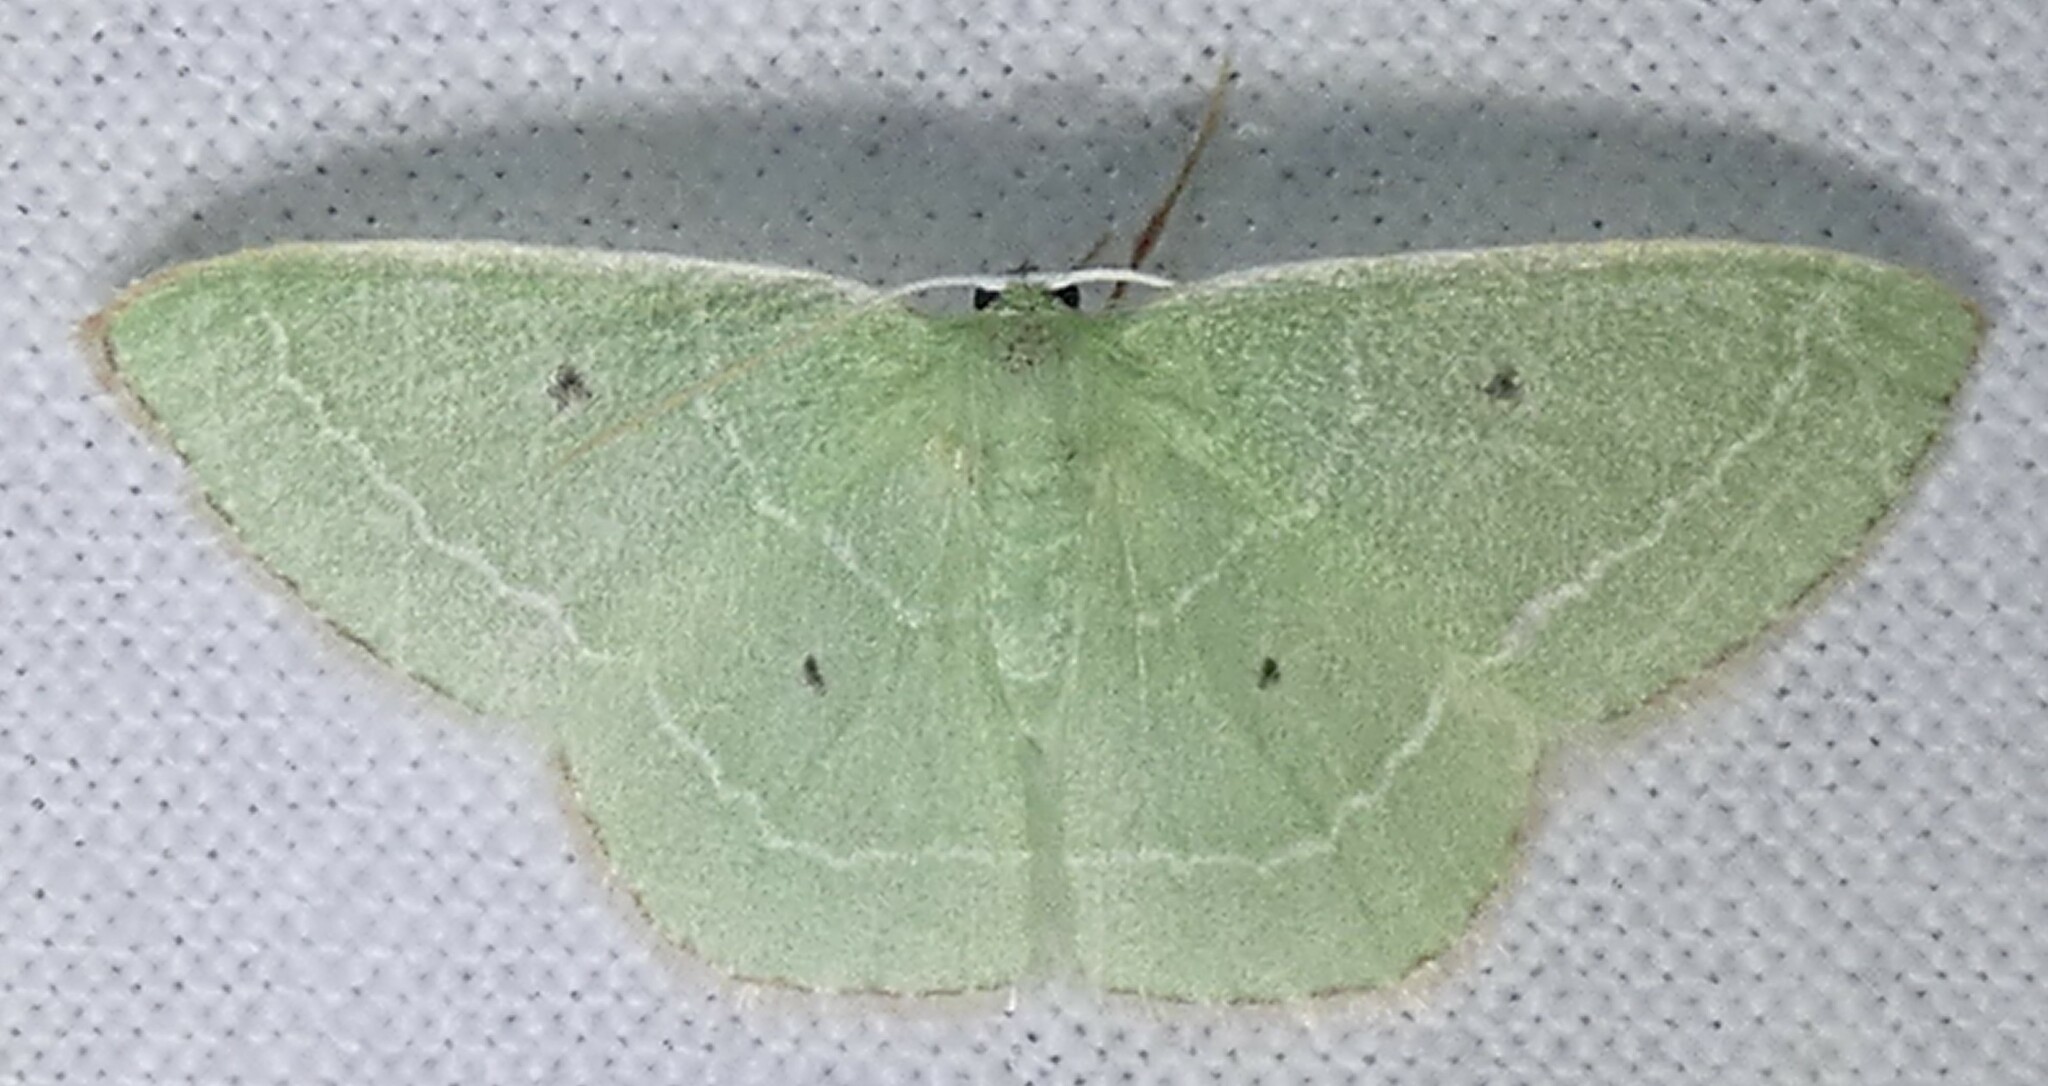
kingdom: Animalia
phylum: Arthropoda
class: Insecta
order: Lepidoptera
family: Geometridae
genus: Nemoria
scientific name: Nemoria elfa
